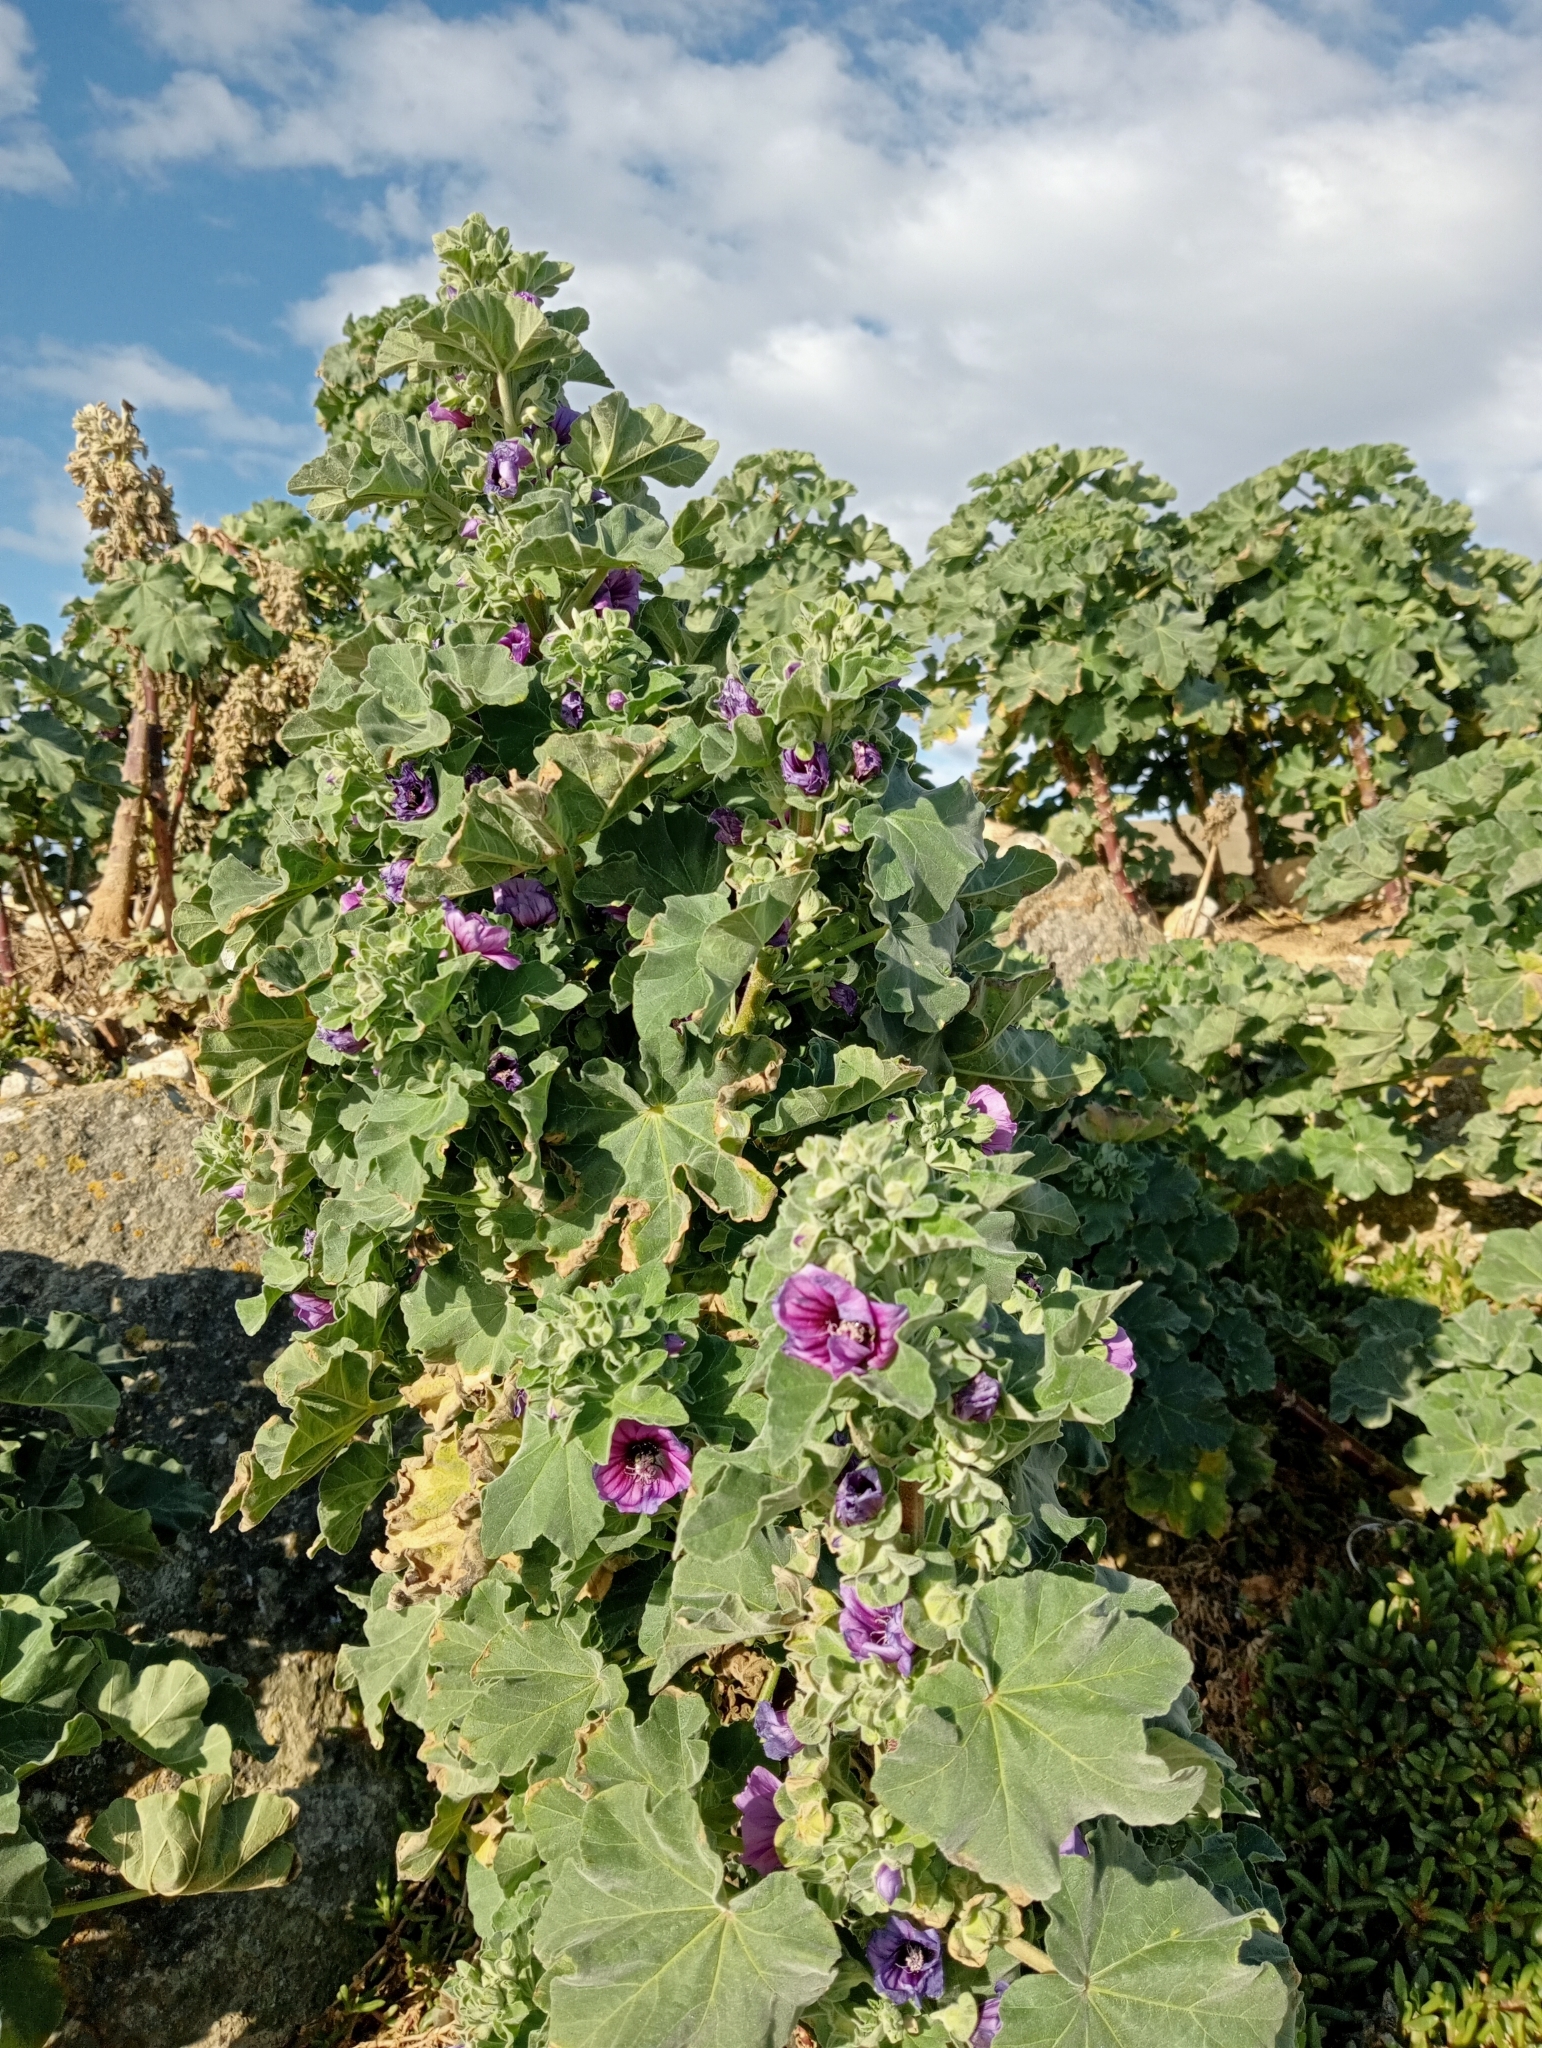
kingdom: Plantae
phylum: Tracheophyta
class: Magnoliopsida
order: Malvales
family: Malvaceae
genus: Malva
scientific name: Malva arborea
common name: Tree mallow
